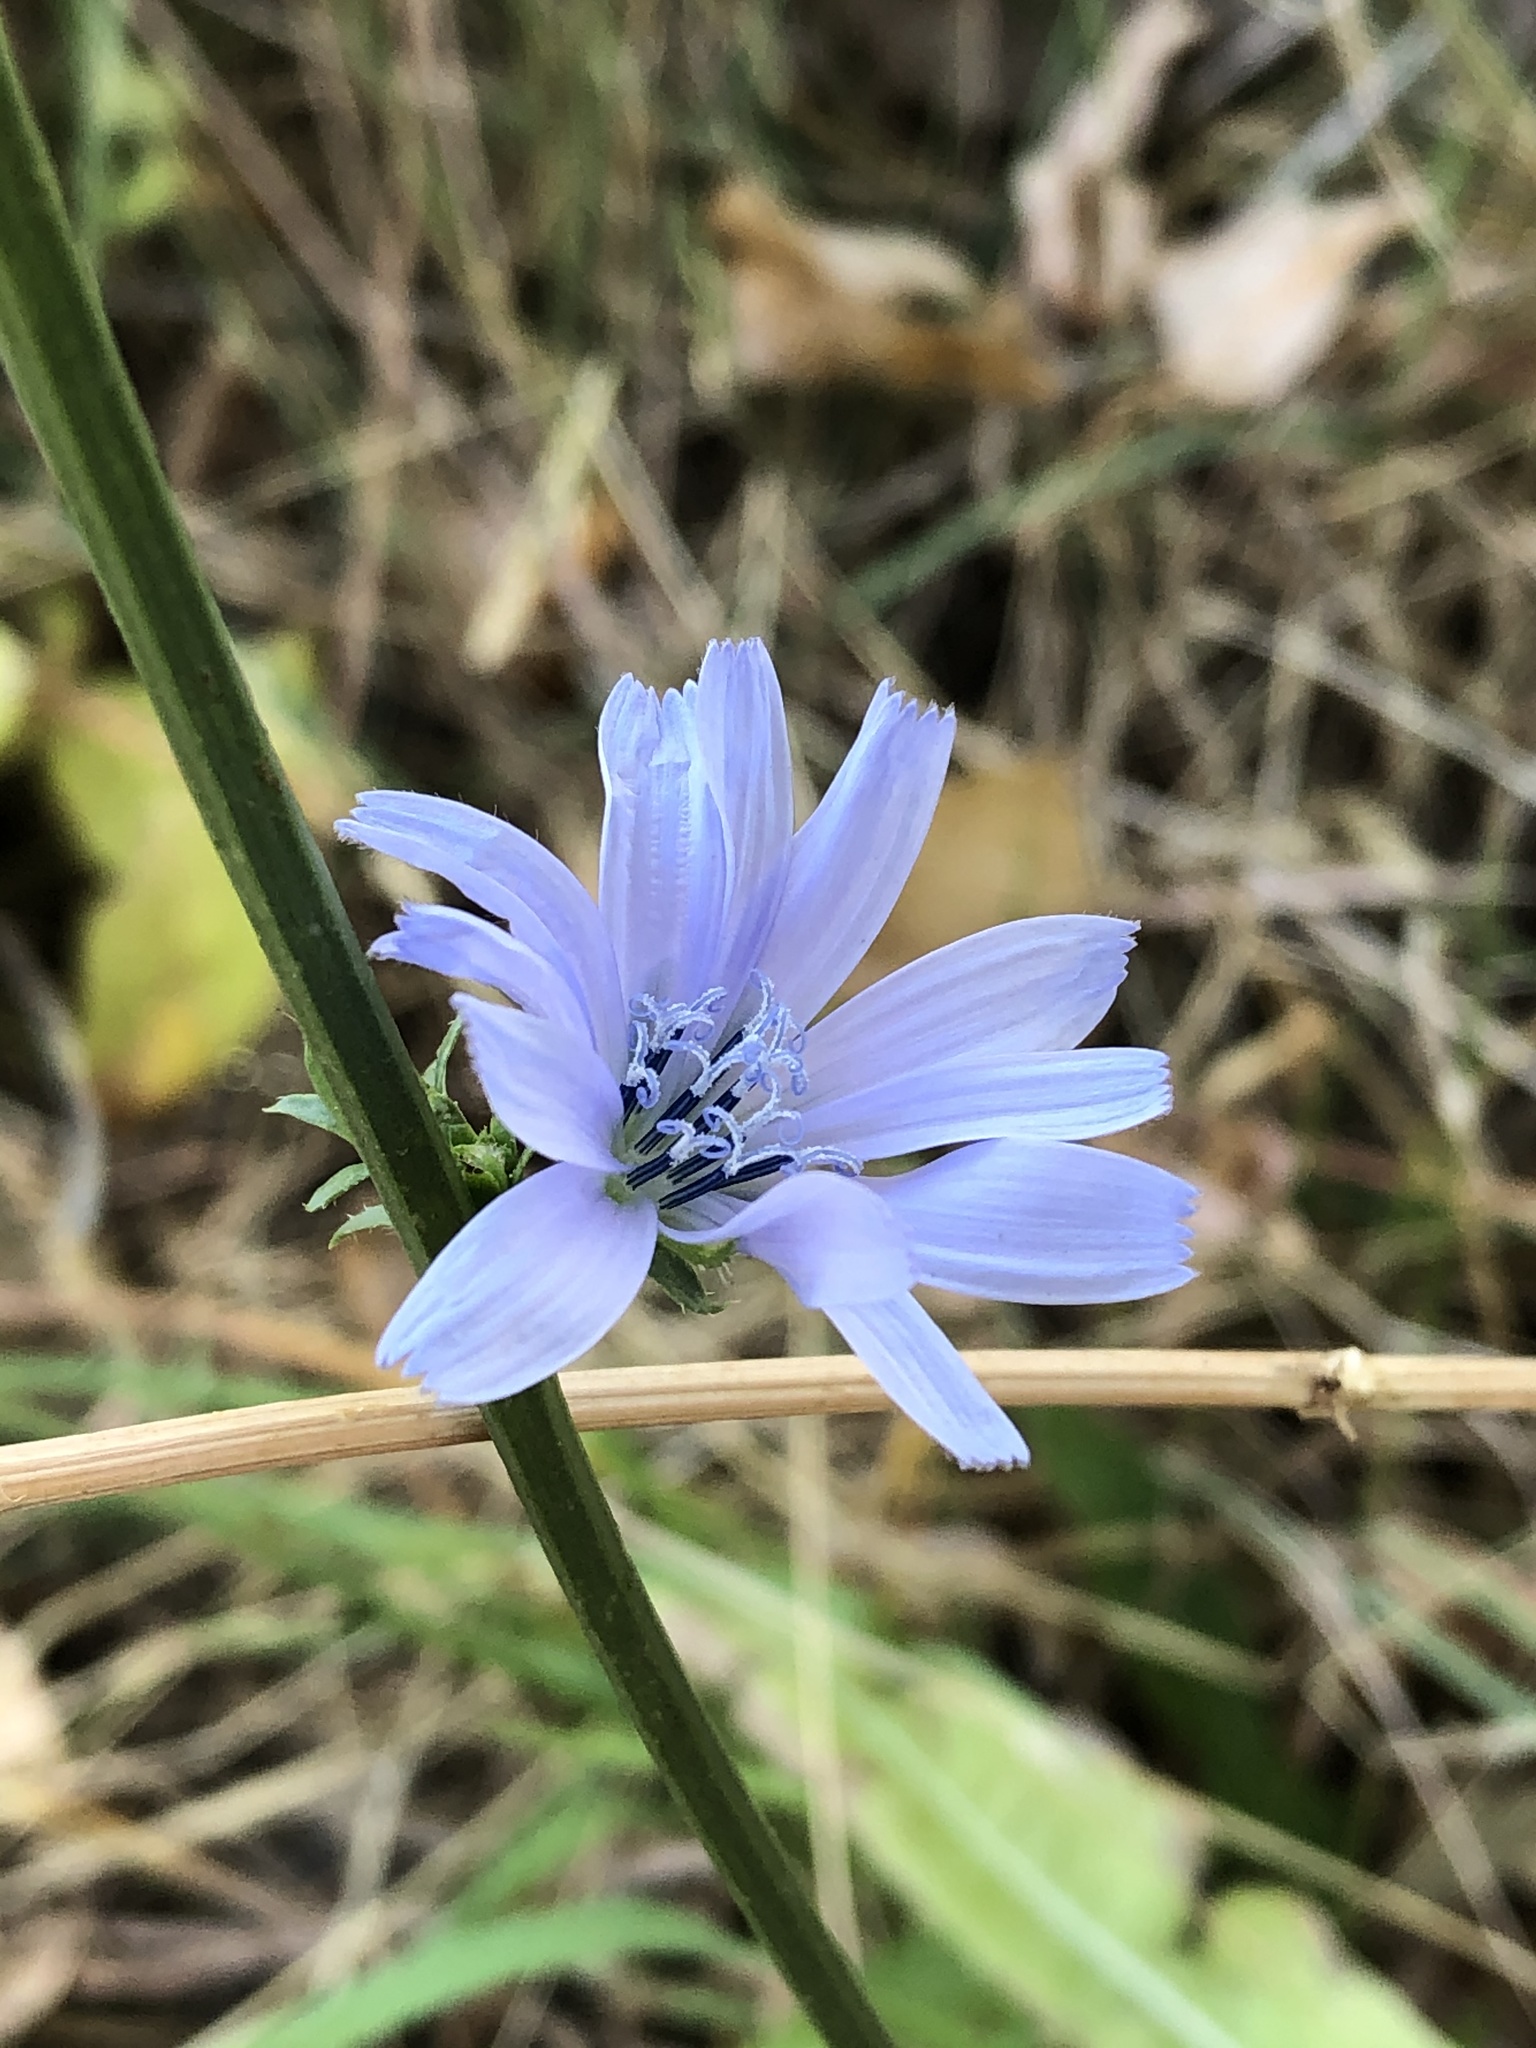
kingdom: Plantae
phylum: Tracheophyta
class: Magnoliopsida
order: Asterales
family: Asteraceae
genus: Cichorium
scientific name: Cichorium intybus
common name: Chicory
